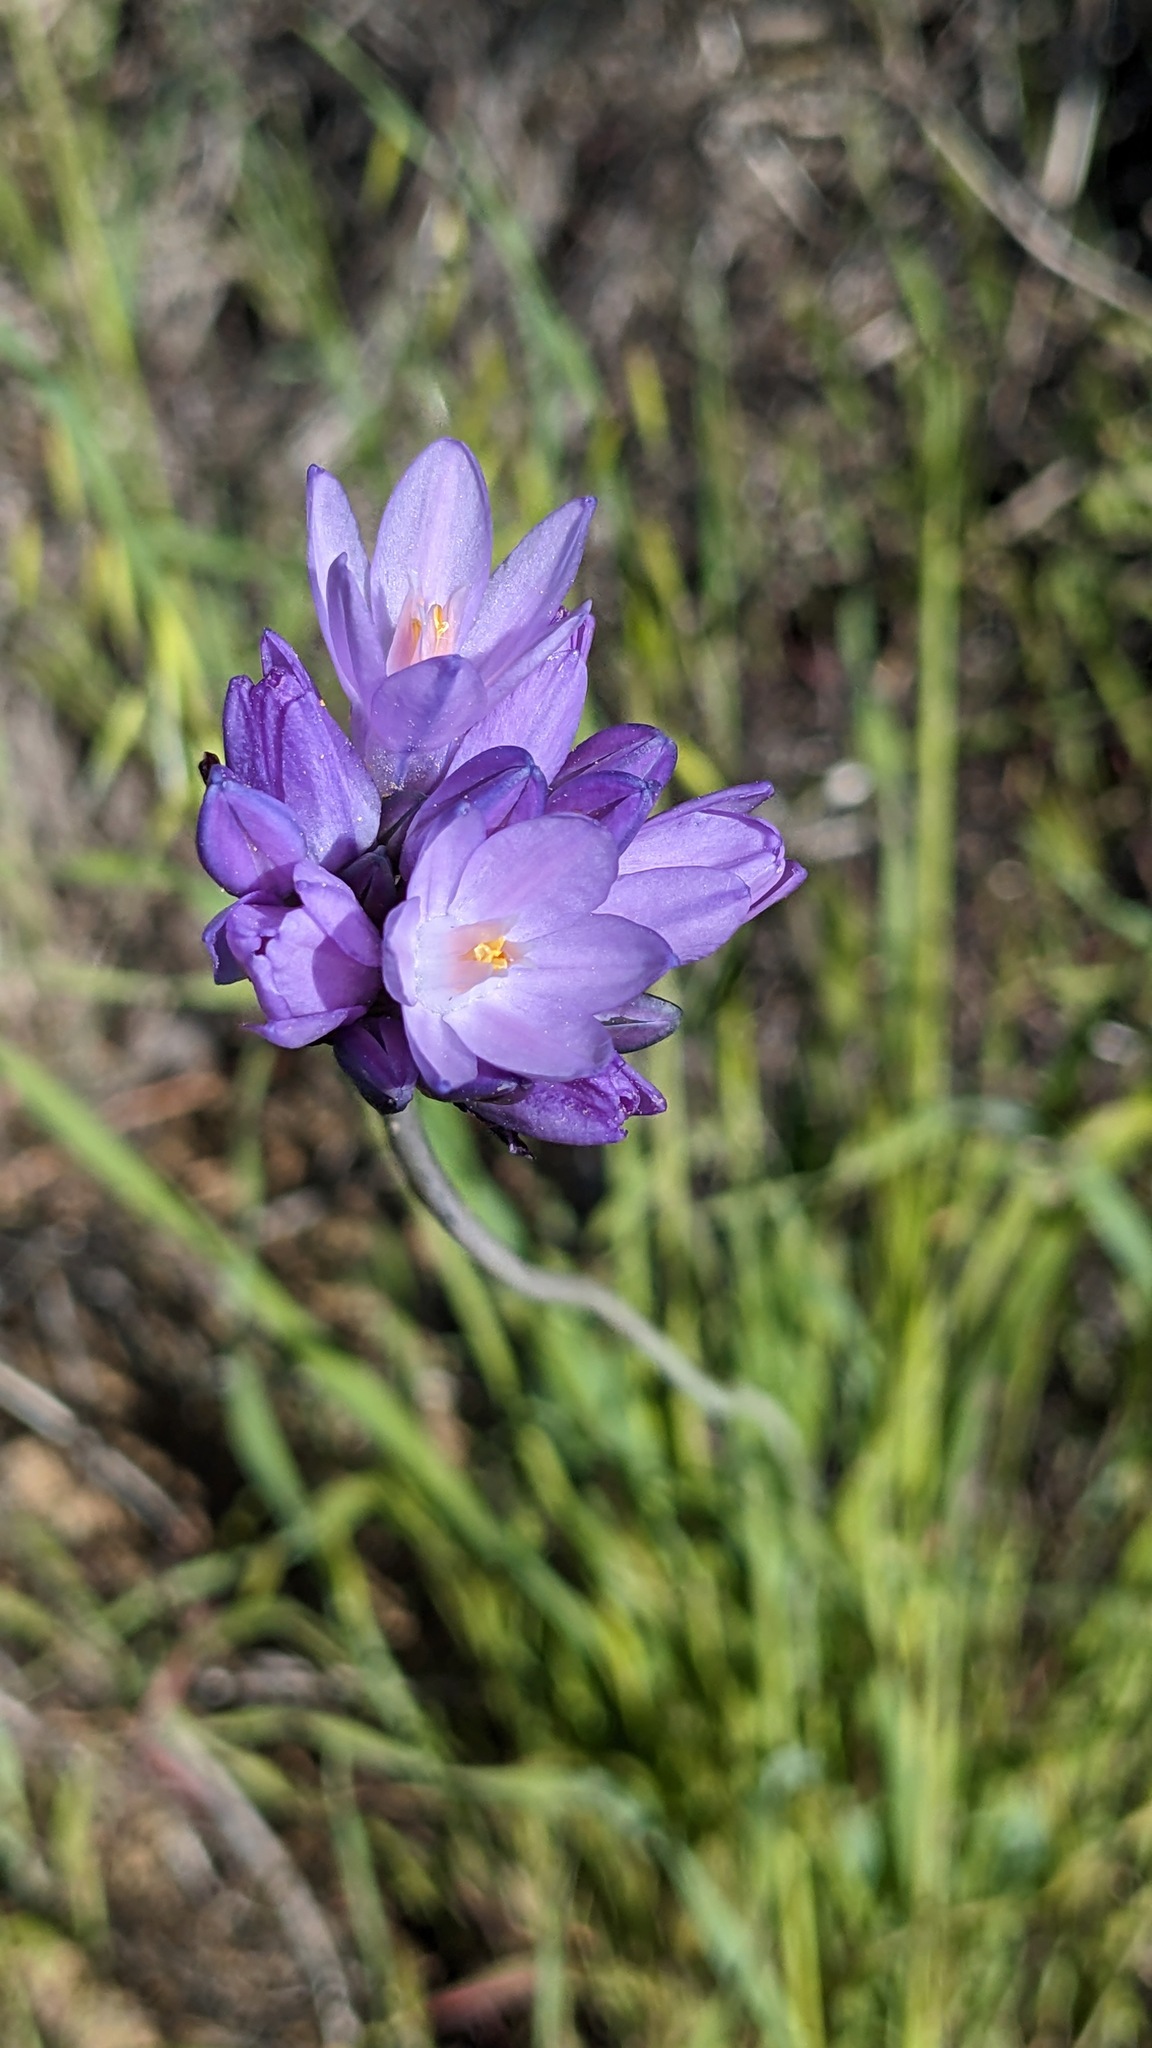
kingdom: Plantae
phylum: Tracheophyta
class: Liliopsida
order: Asparagales
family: Asparagaceae
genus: Dipterostemon
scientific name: Dipterostemon capitatus
